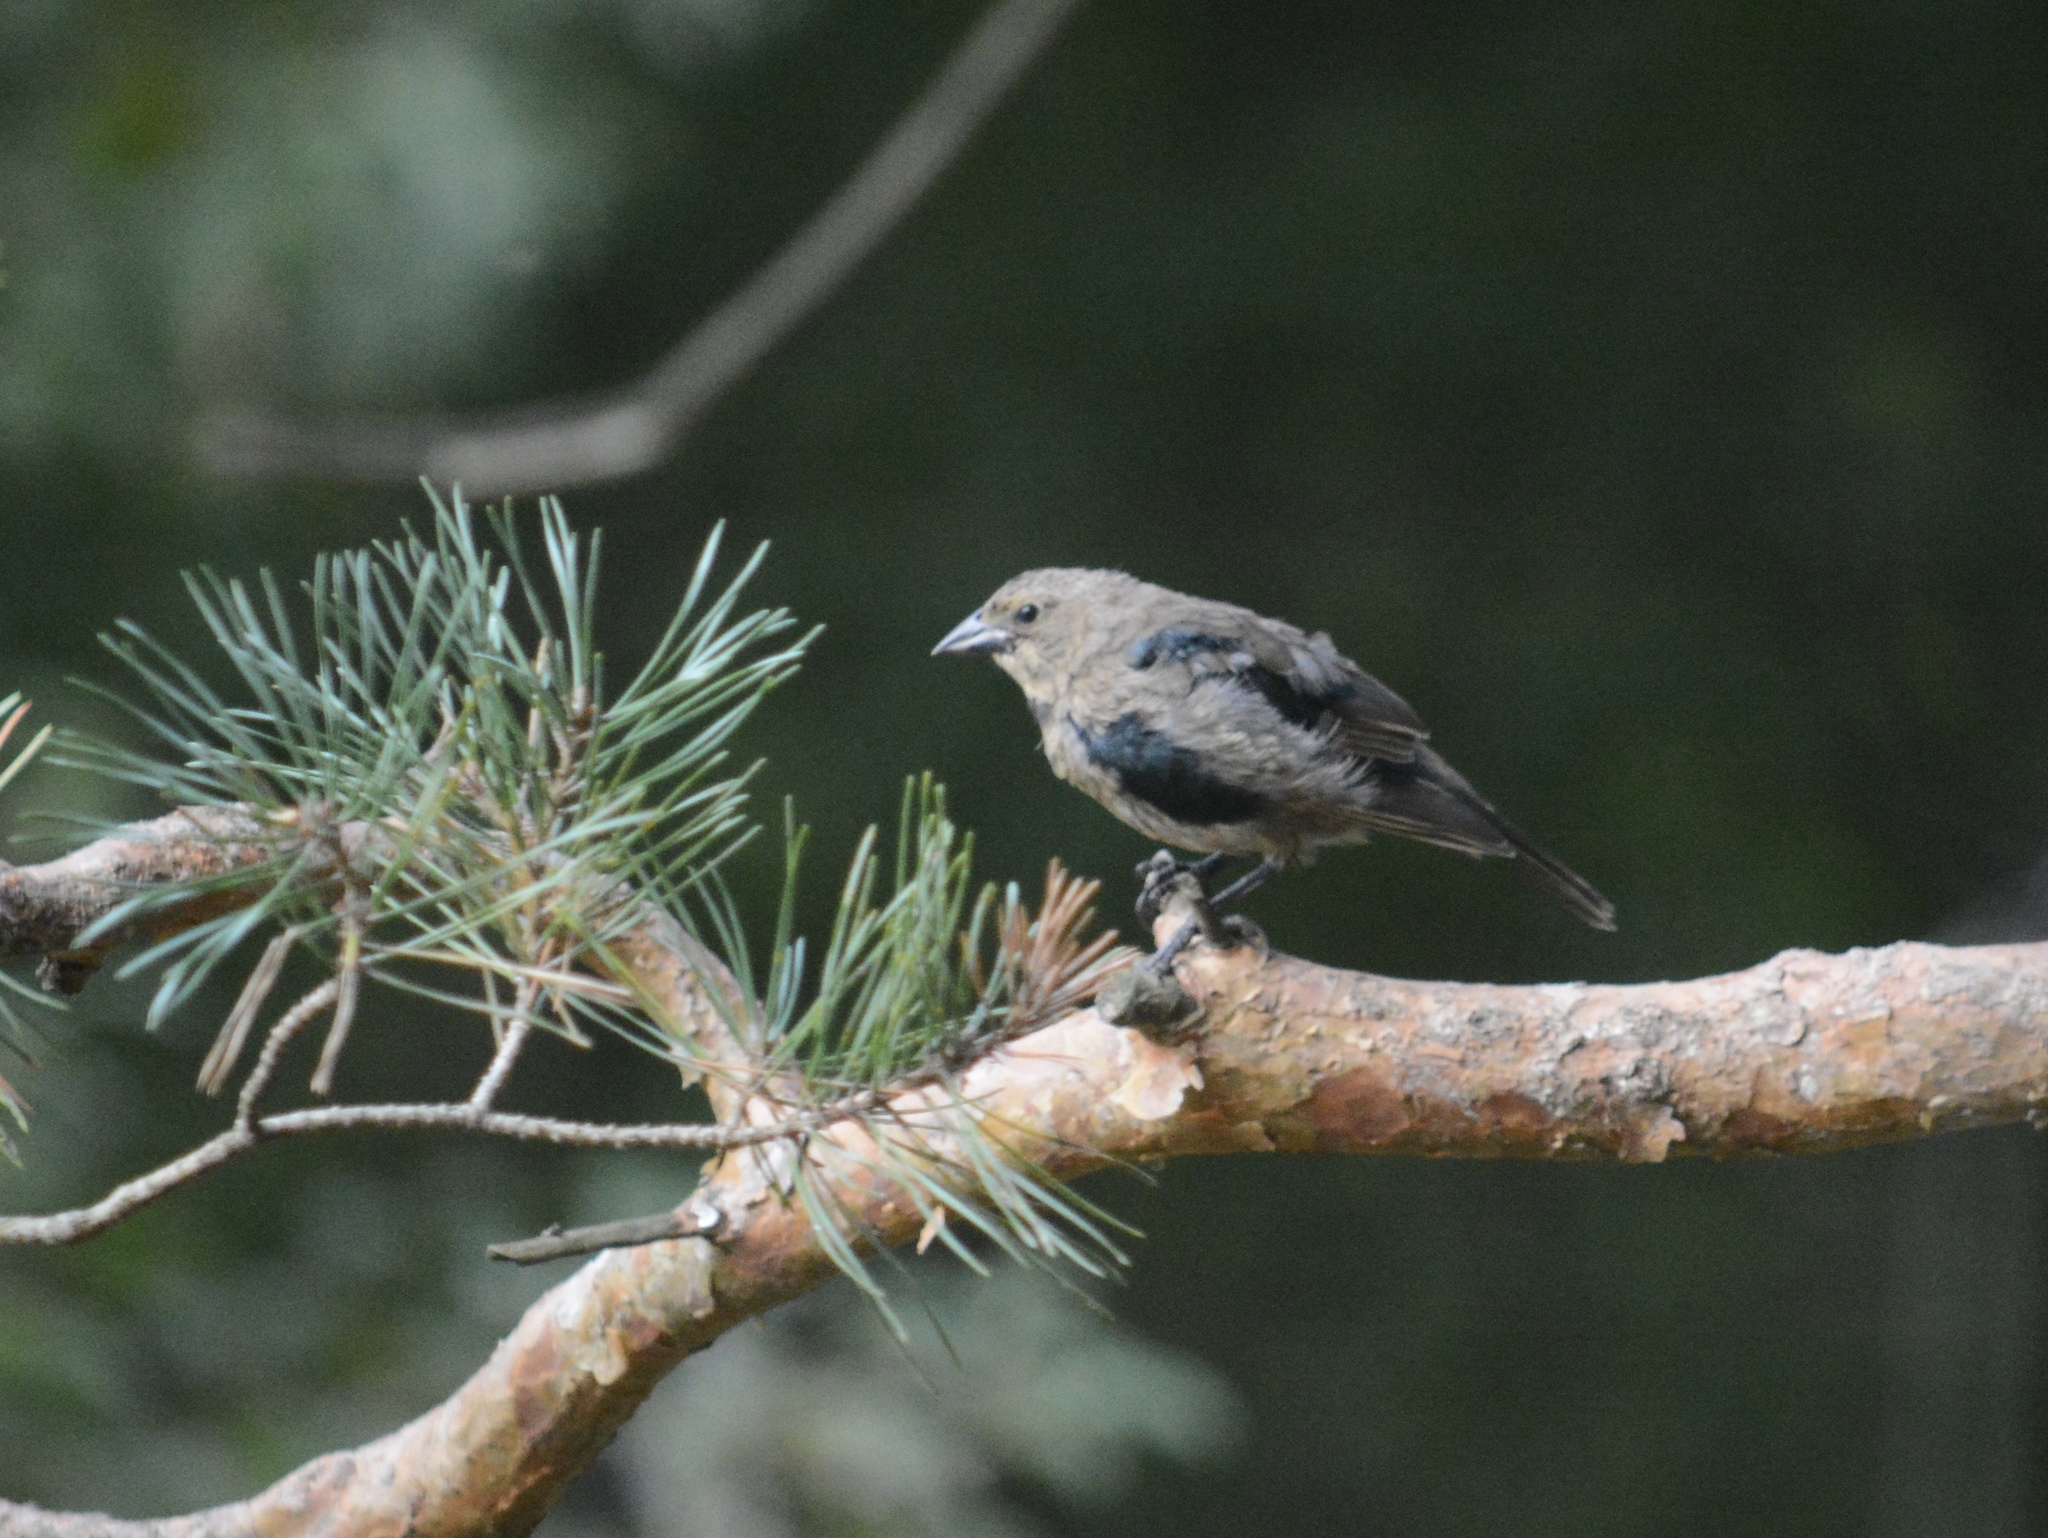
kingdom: Animalia
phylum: Chordata
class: Aves
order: Passeriformes
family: Icteridae
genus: Molothrus
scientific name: Molothrus ater
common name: Brown-headed cowbird
